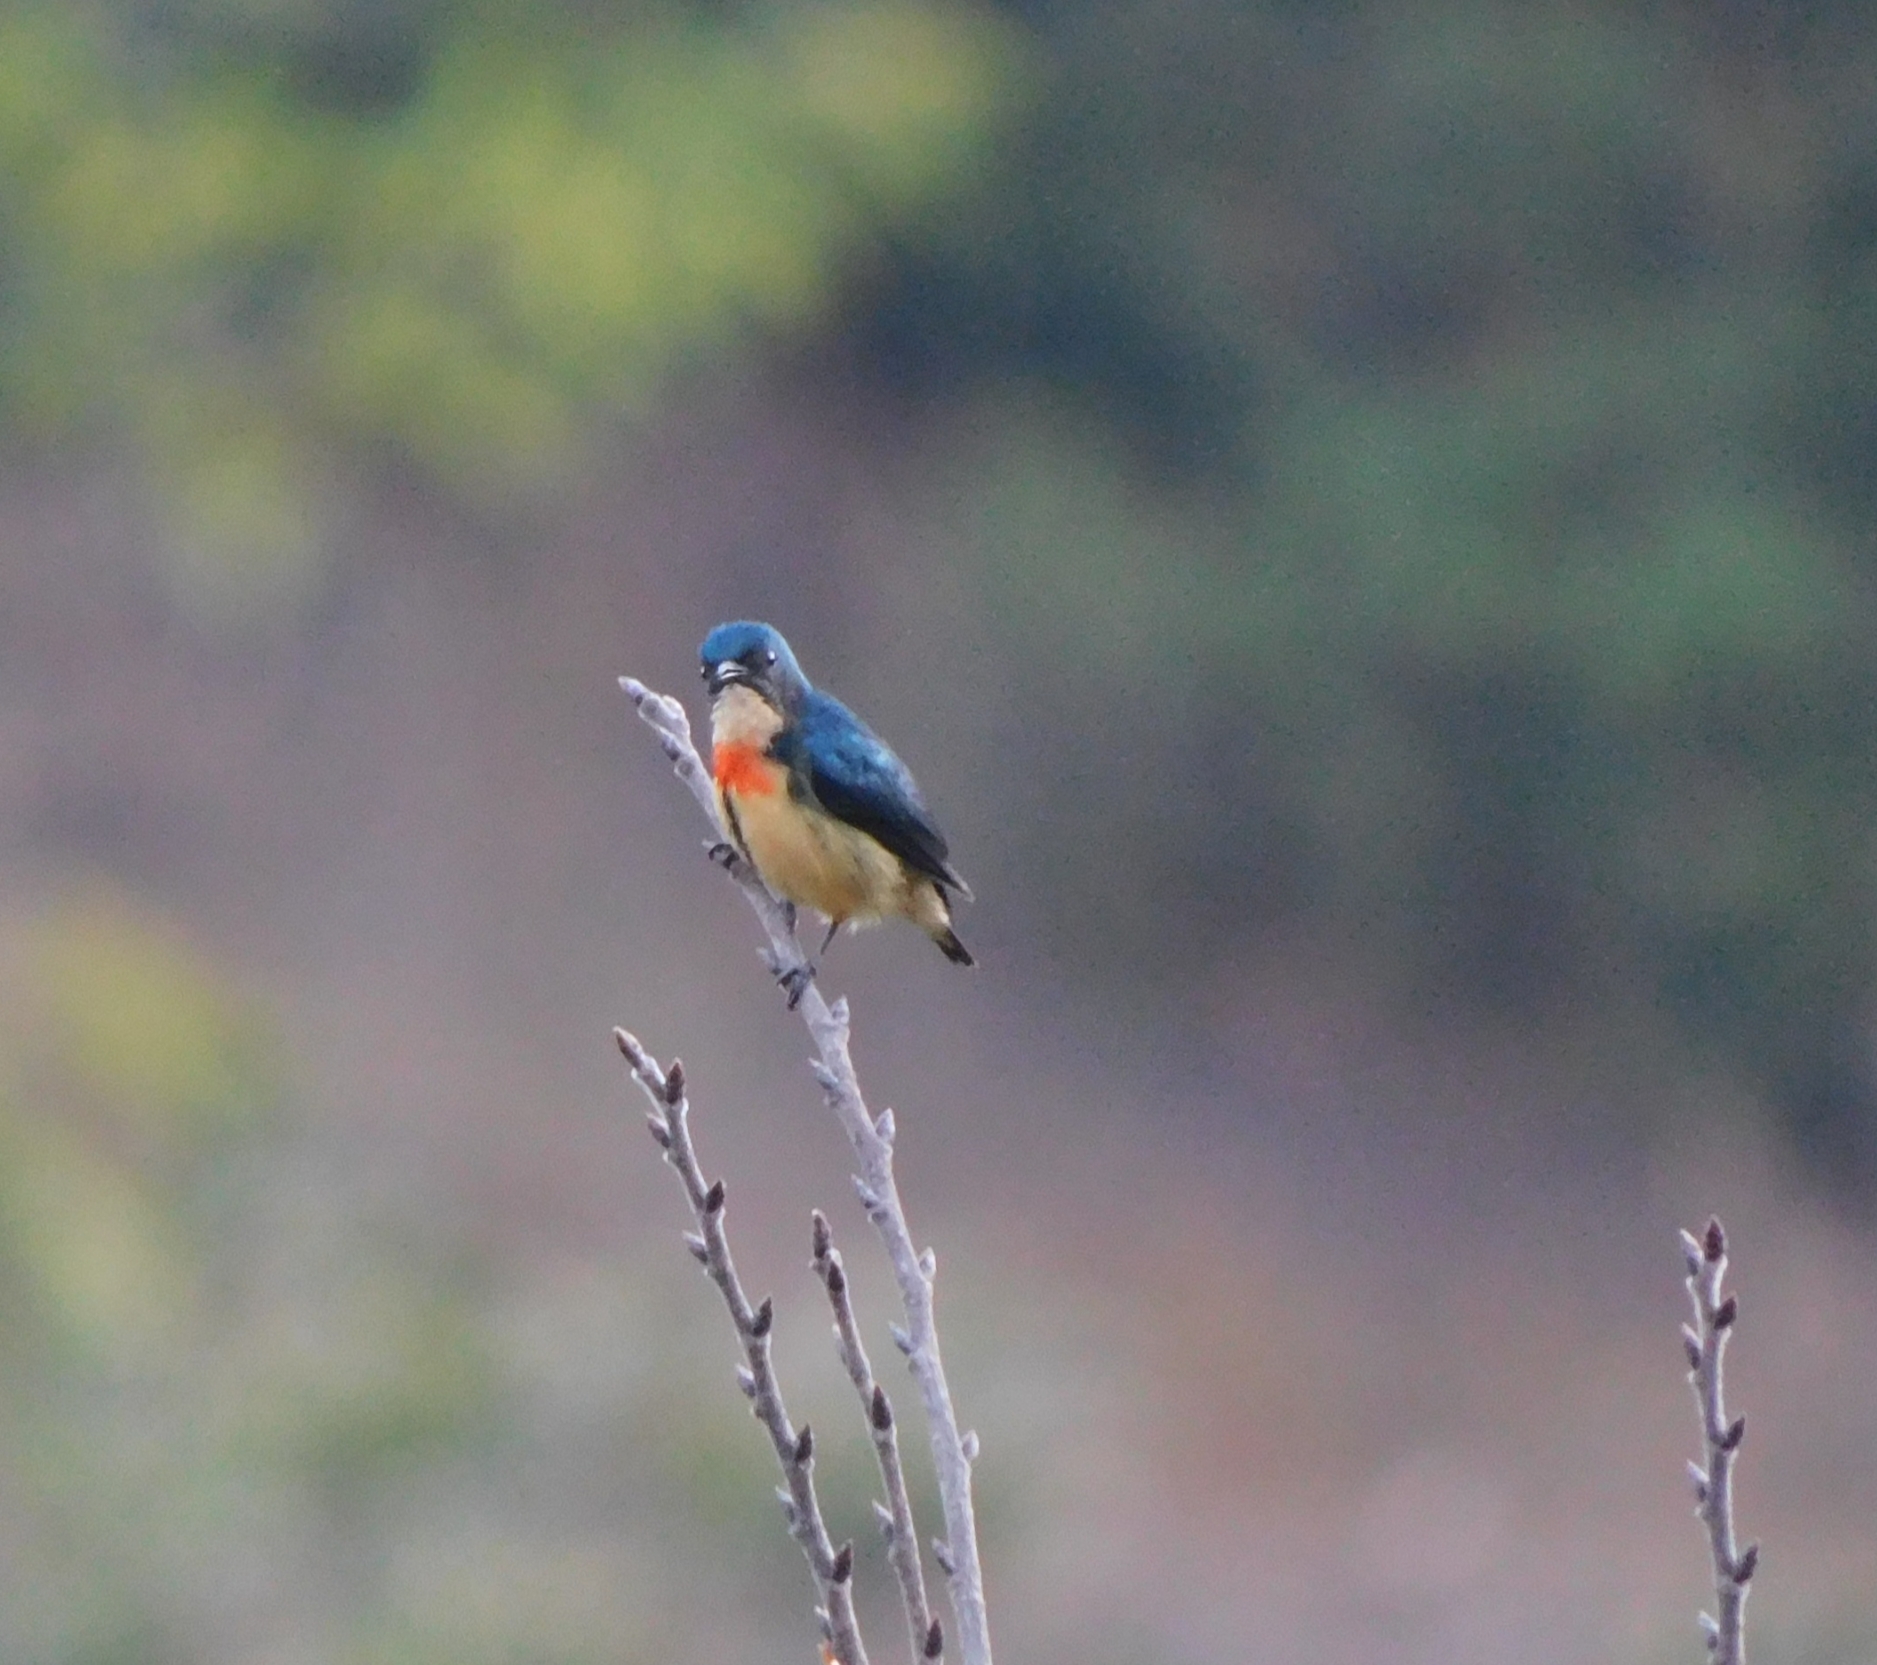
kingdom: Animalia
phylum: Chordata
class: Aves
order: Passeriformes
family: Dicaeidae
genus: Dicaeum
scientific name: Dicaeum ignipectus
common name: Fire-breasted flowerpecker
